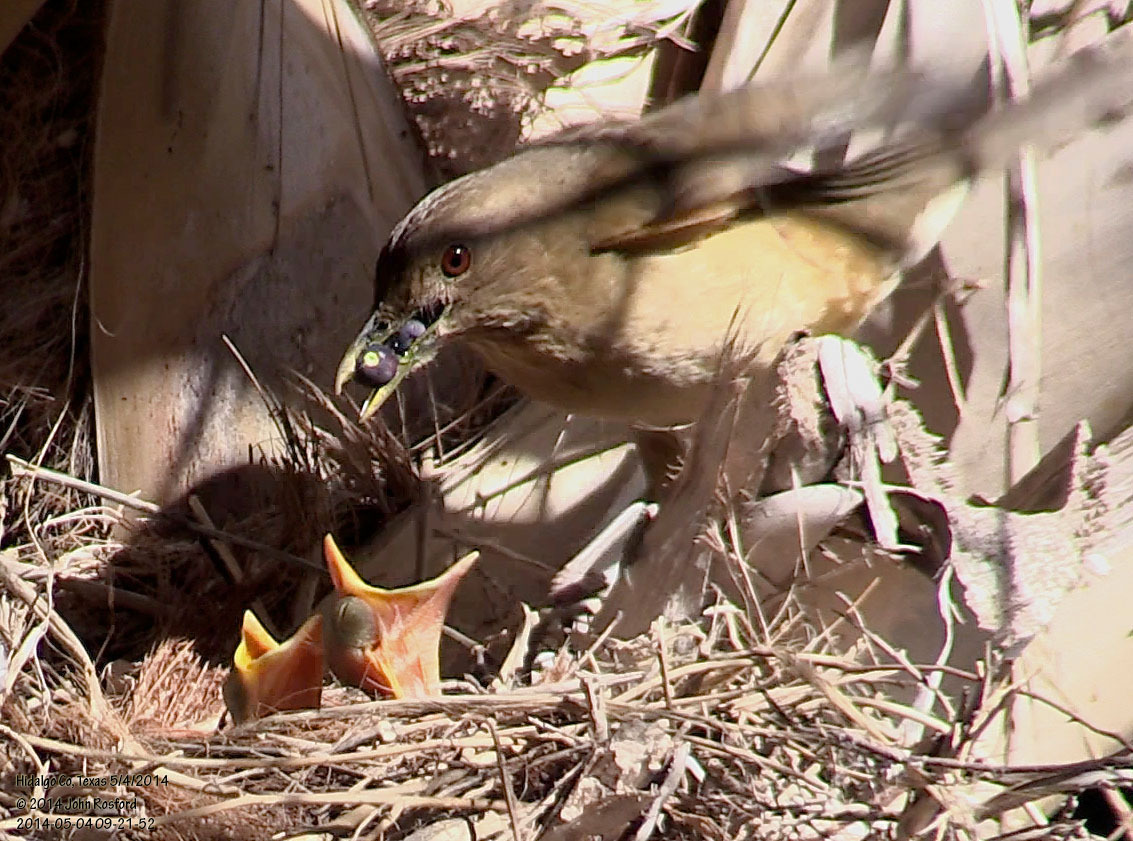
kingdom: Animalia
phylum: Chordata
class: Aves
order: Passeriformes
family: Turdidae
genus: Turdus
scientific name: Turdus grayi
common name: Clay-colored thrush
